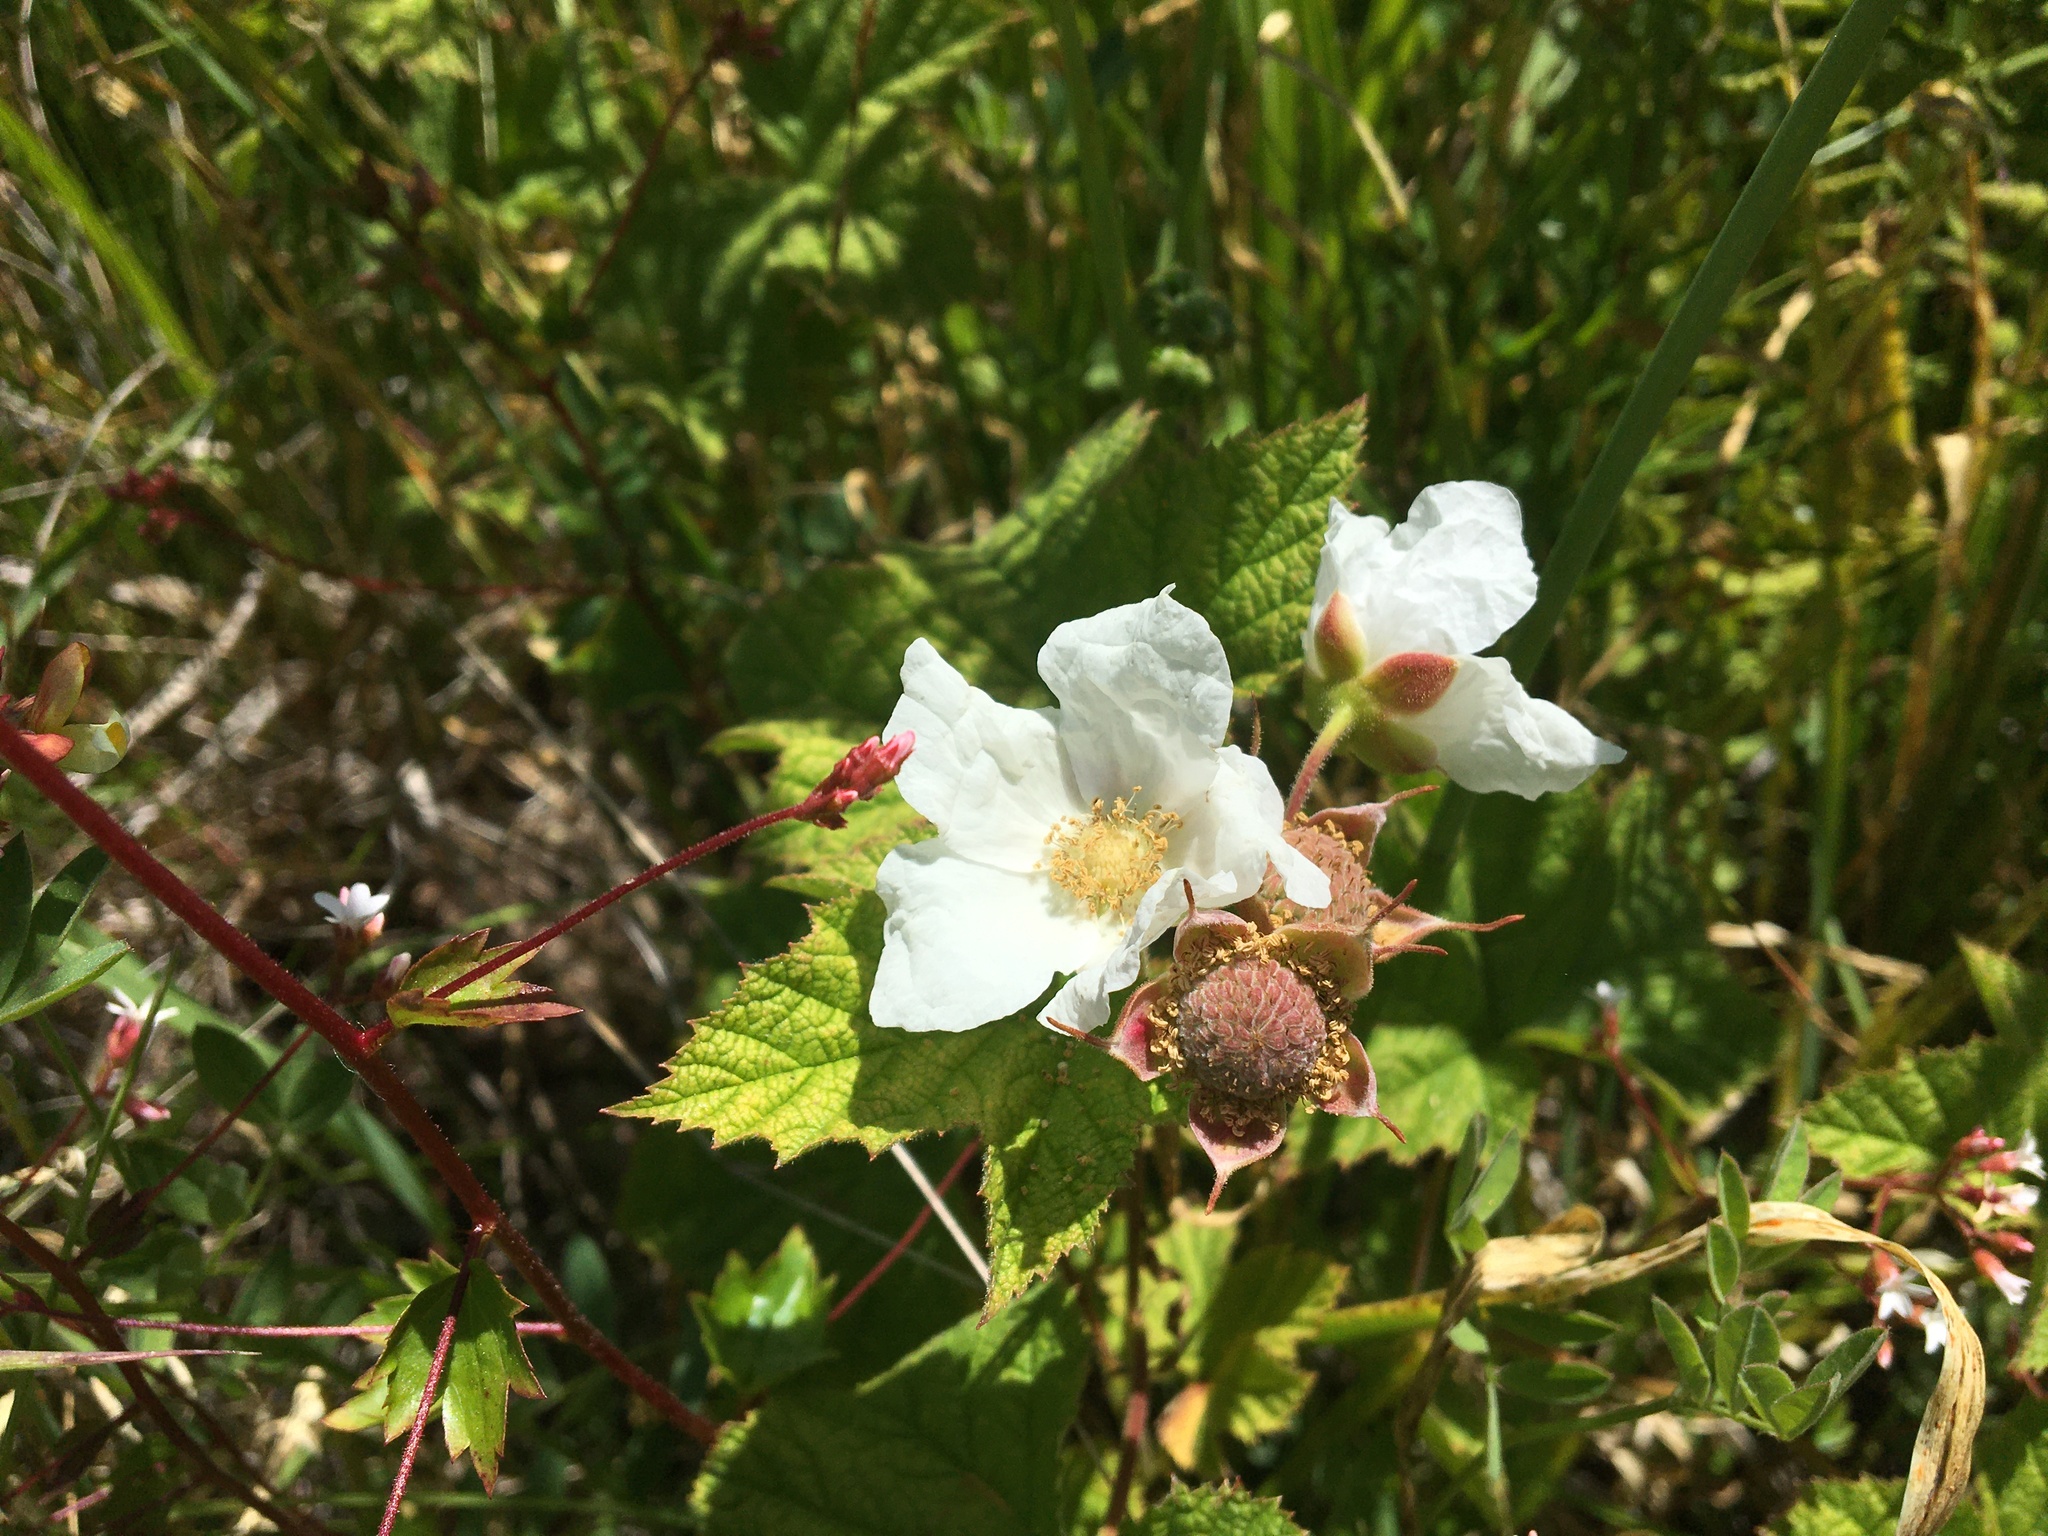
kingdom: Plantae
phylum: Tracheophyta
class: Magnoliopsida
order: Rosales
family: Rosaceae
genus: Rubus
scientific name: Rubus parviflorus
